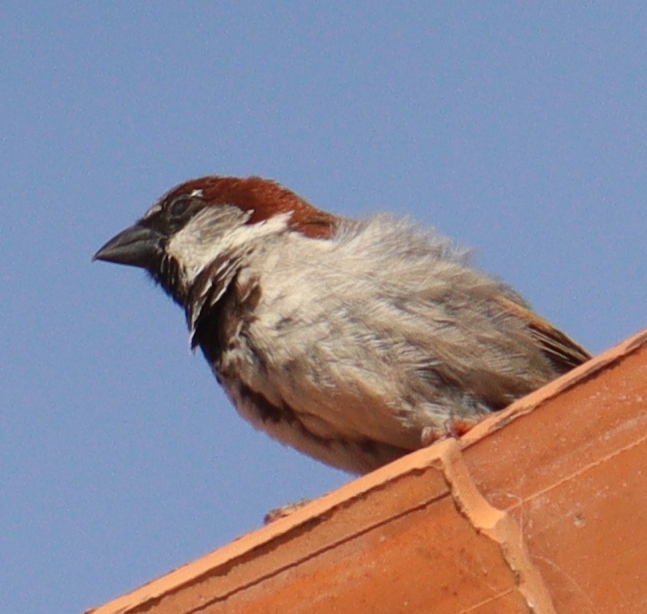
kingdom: Animalia
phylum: Chordata
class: Aves
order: Passeriformes
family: Passeridae
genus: Passer
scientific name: Passer domesticus
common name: House sparrow
